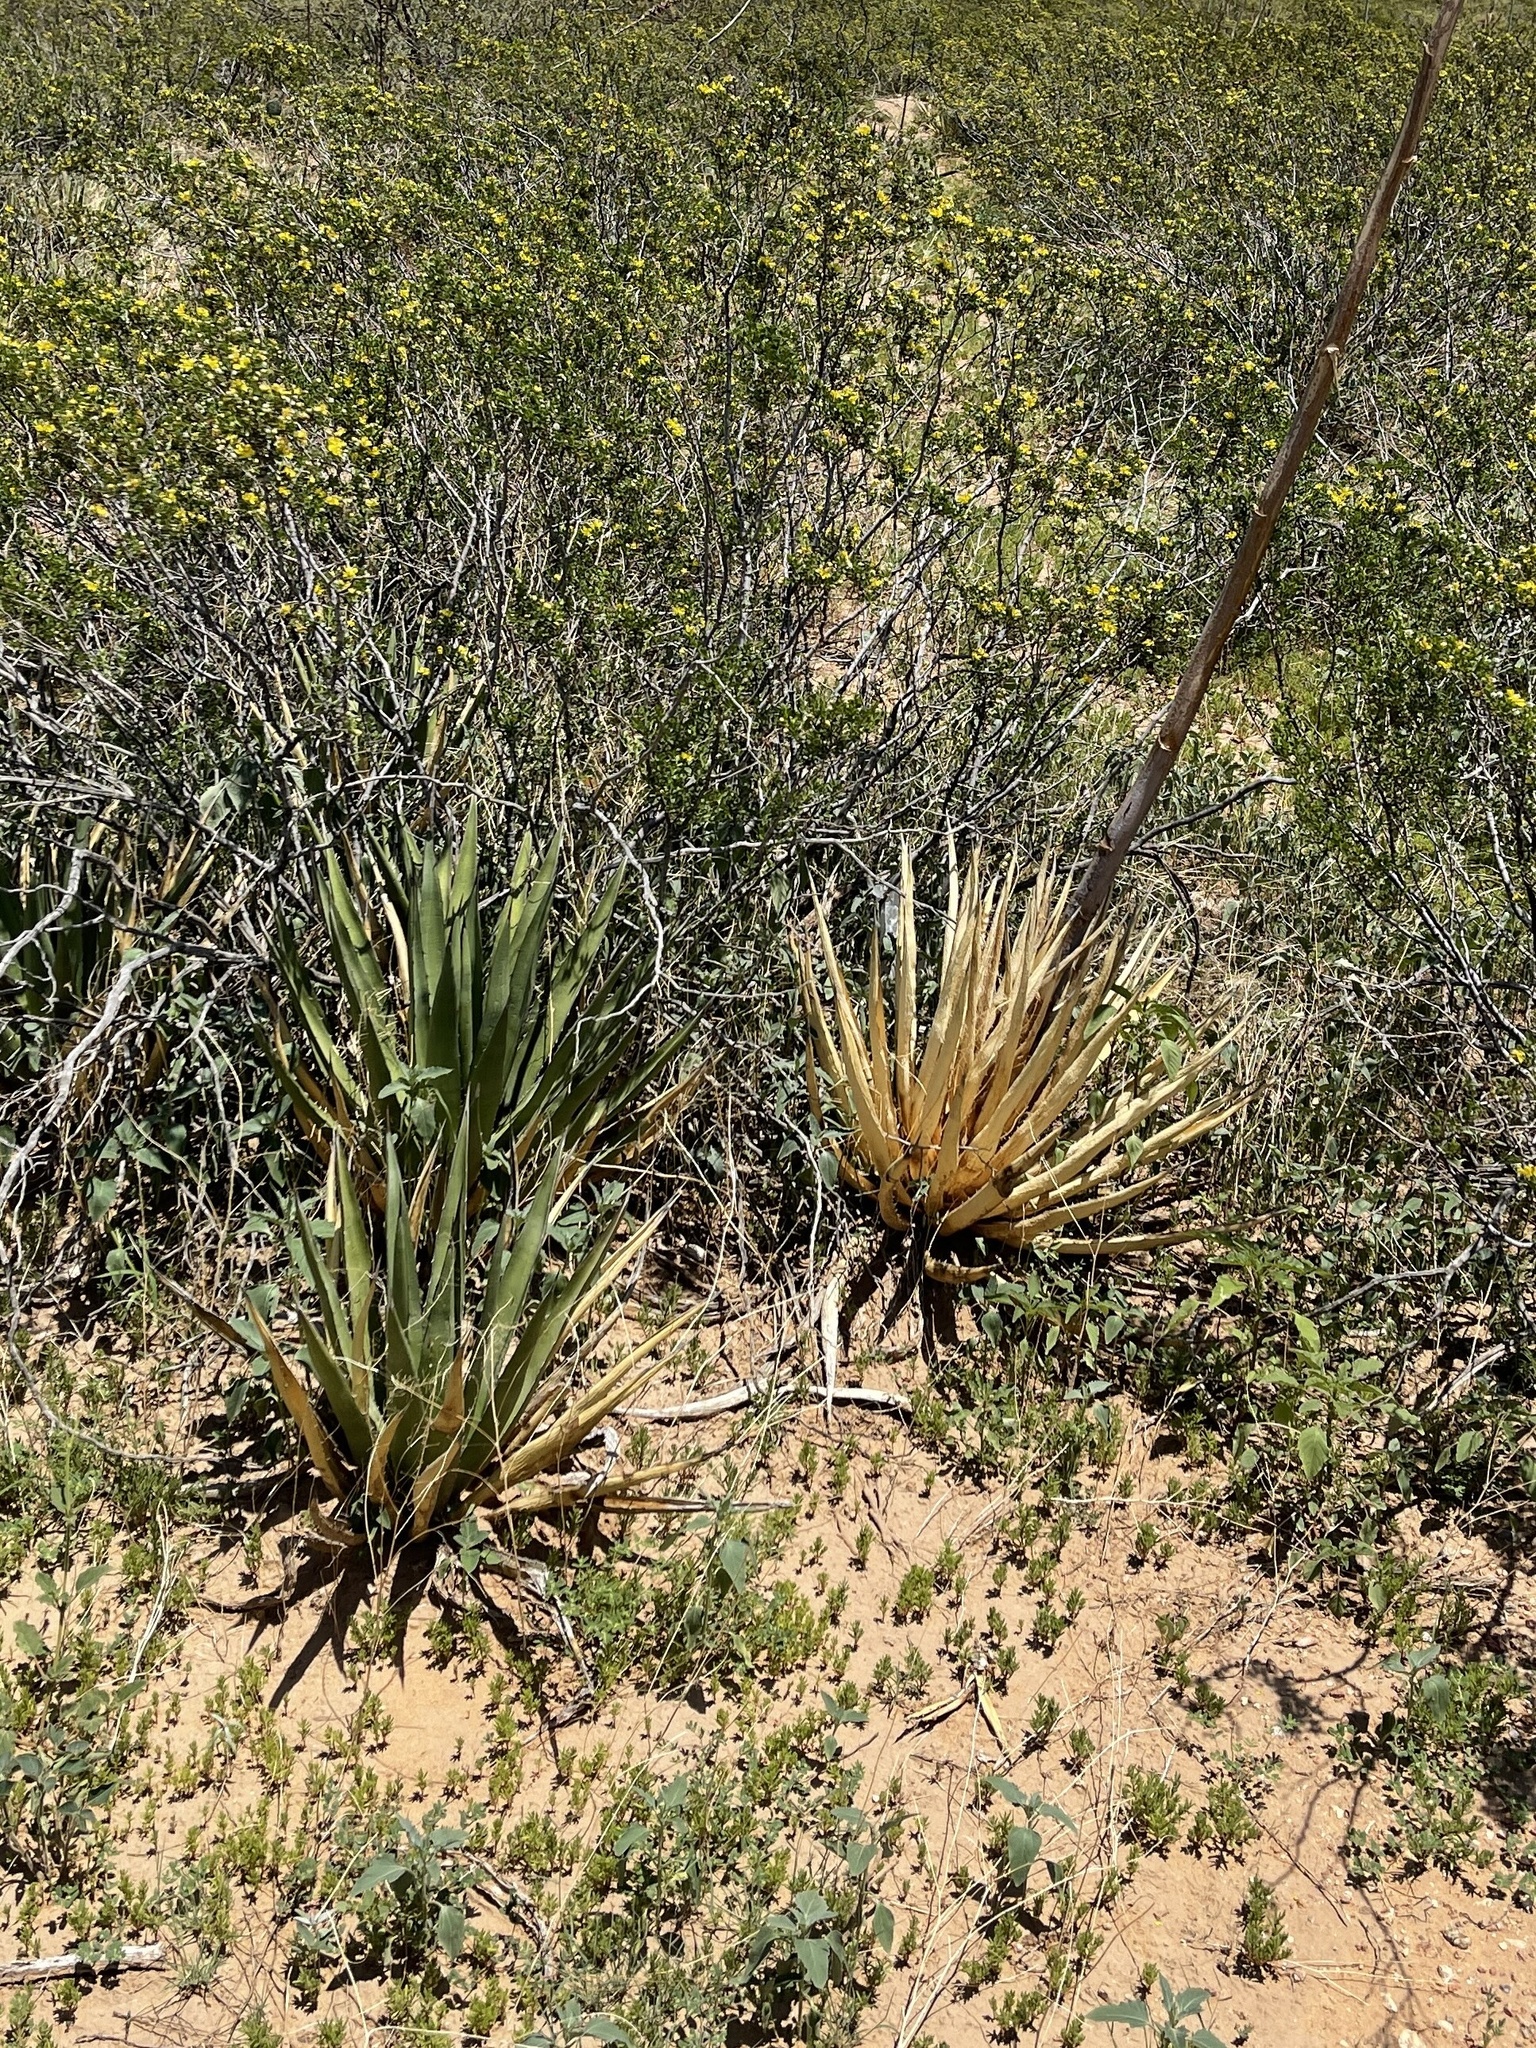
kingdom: Plantae
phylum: Tracheophyta
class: Liliopsida
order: Asparagales
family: Asparagaceae
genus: Agave
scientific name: Agave lechuguilla
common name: Lecheguilla agave
